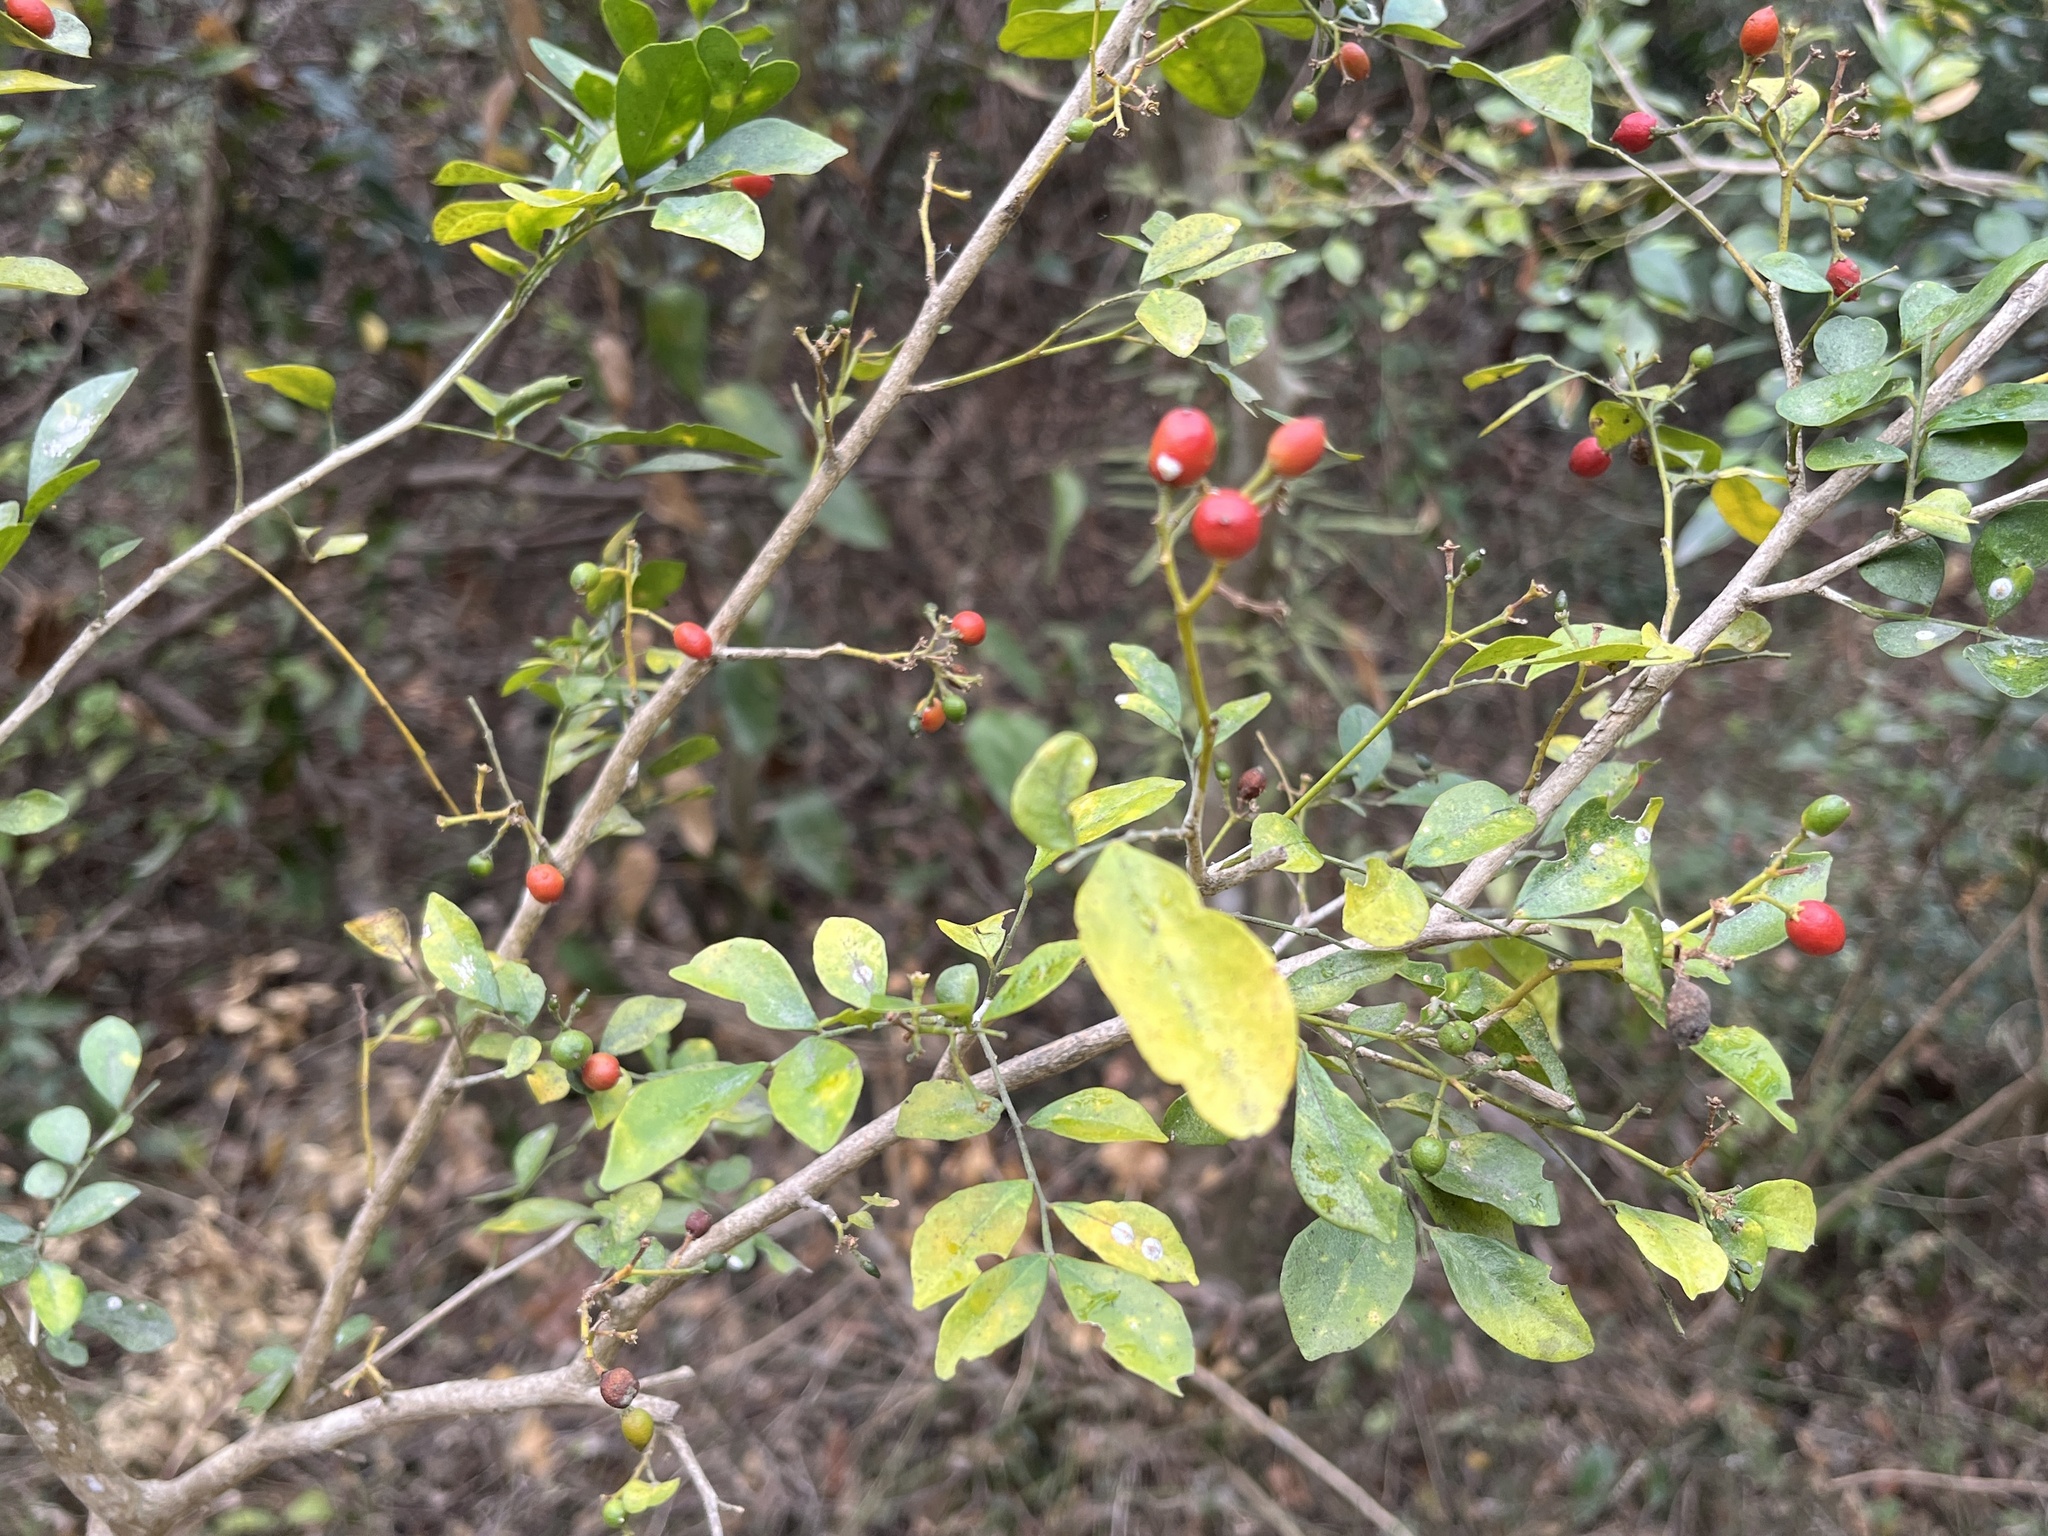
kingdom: Plantae
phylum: Tracheophyta
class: Magnoliopsida
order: Sapindales
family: Rutaceae
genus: Murraya
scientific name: Murraya paniculata
